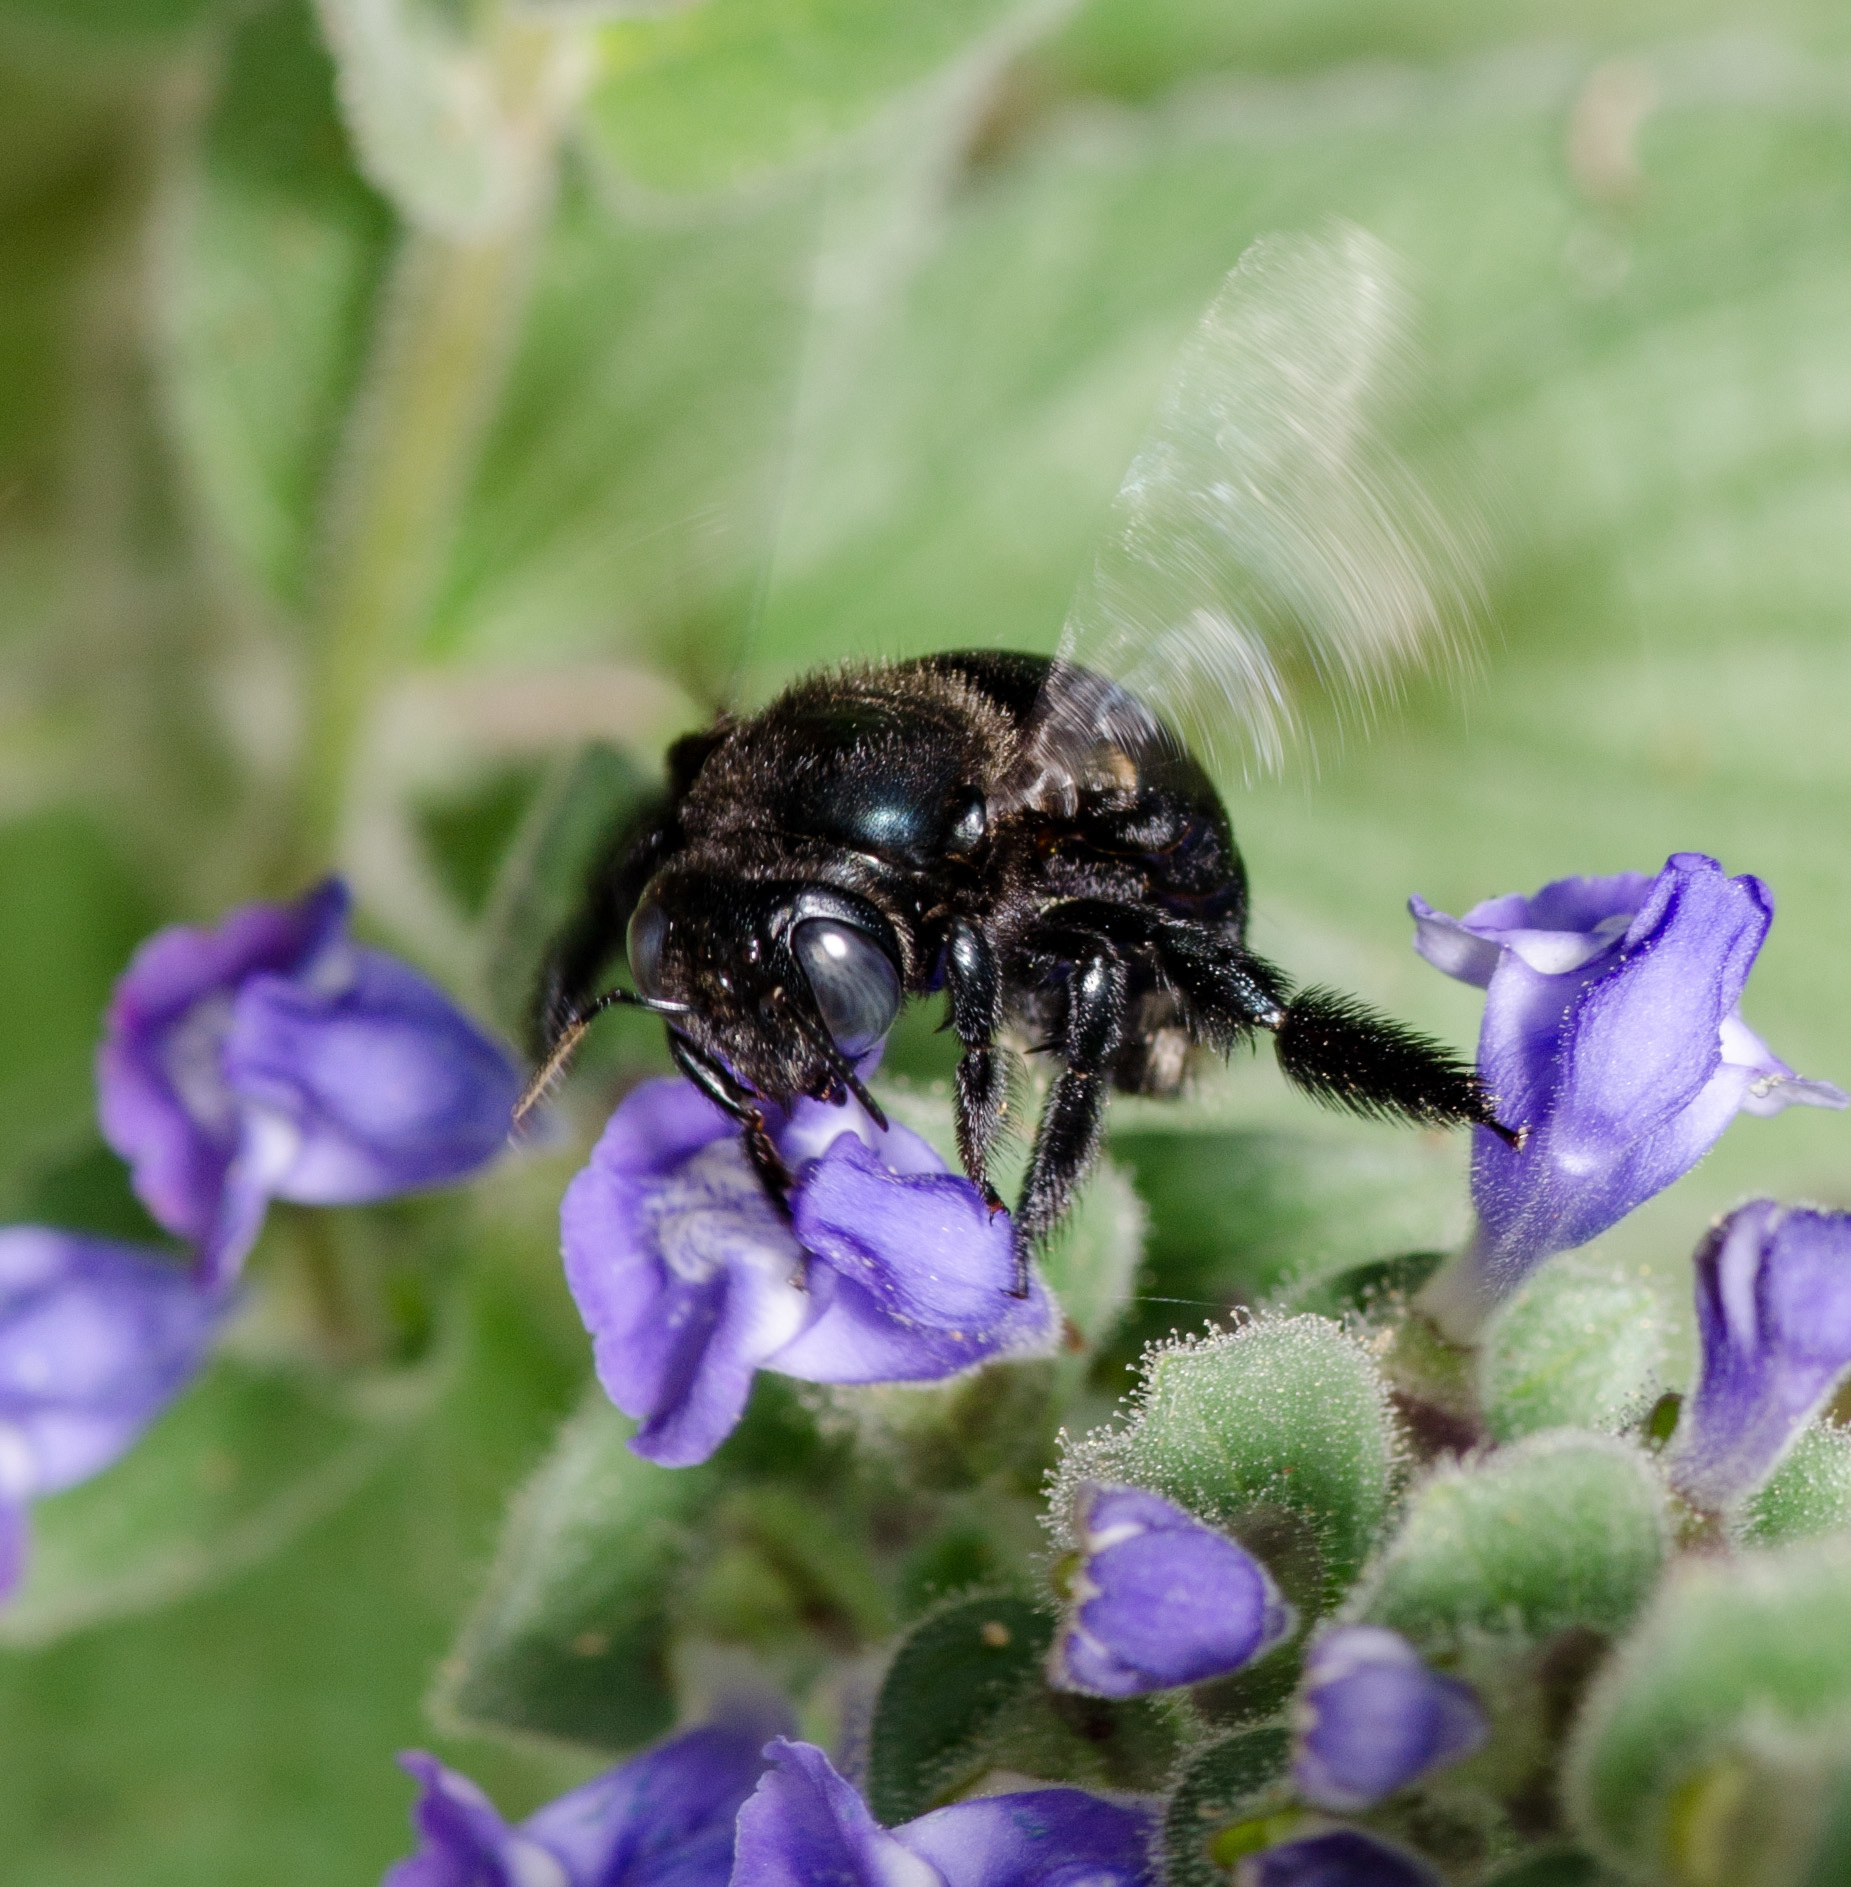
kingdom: Animalia
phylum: Arthropoda
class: Insecta
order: Hymenoptera
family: Apidae
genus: Xylocopa
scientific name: Xylocopa micans
